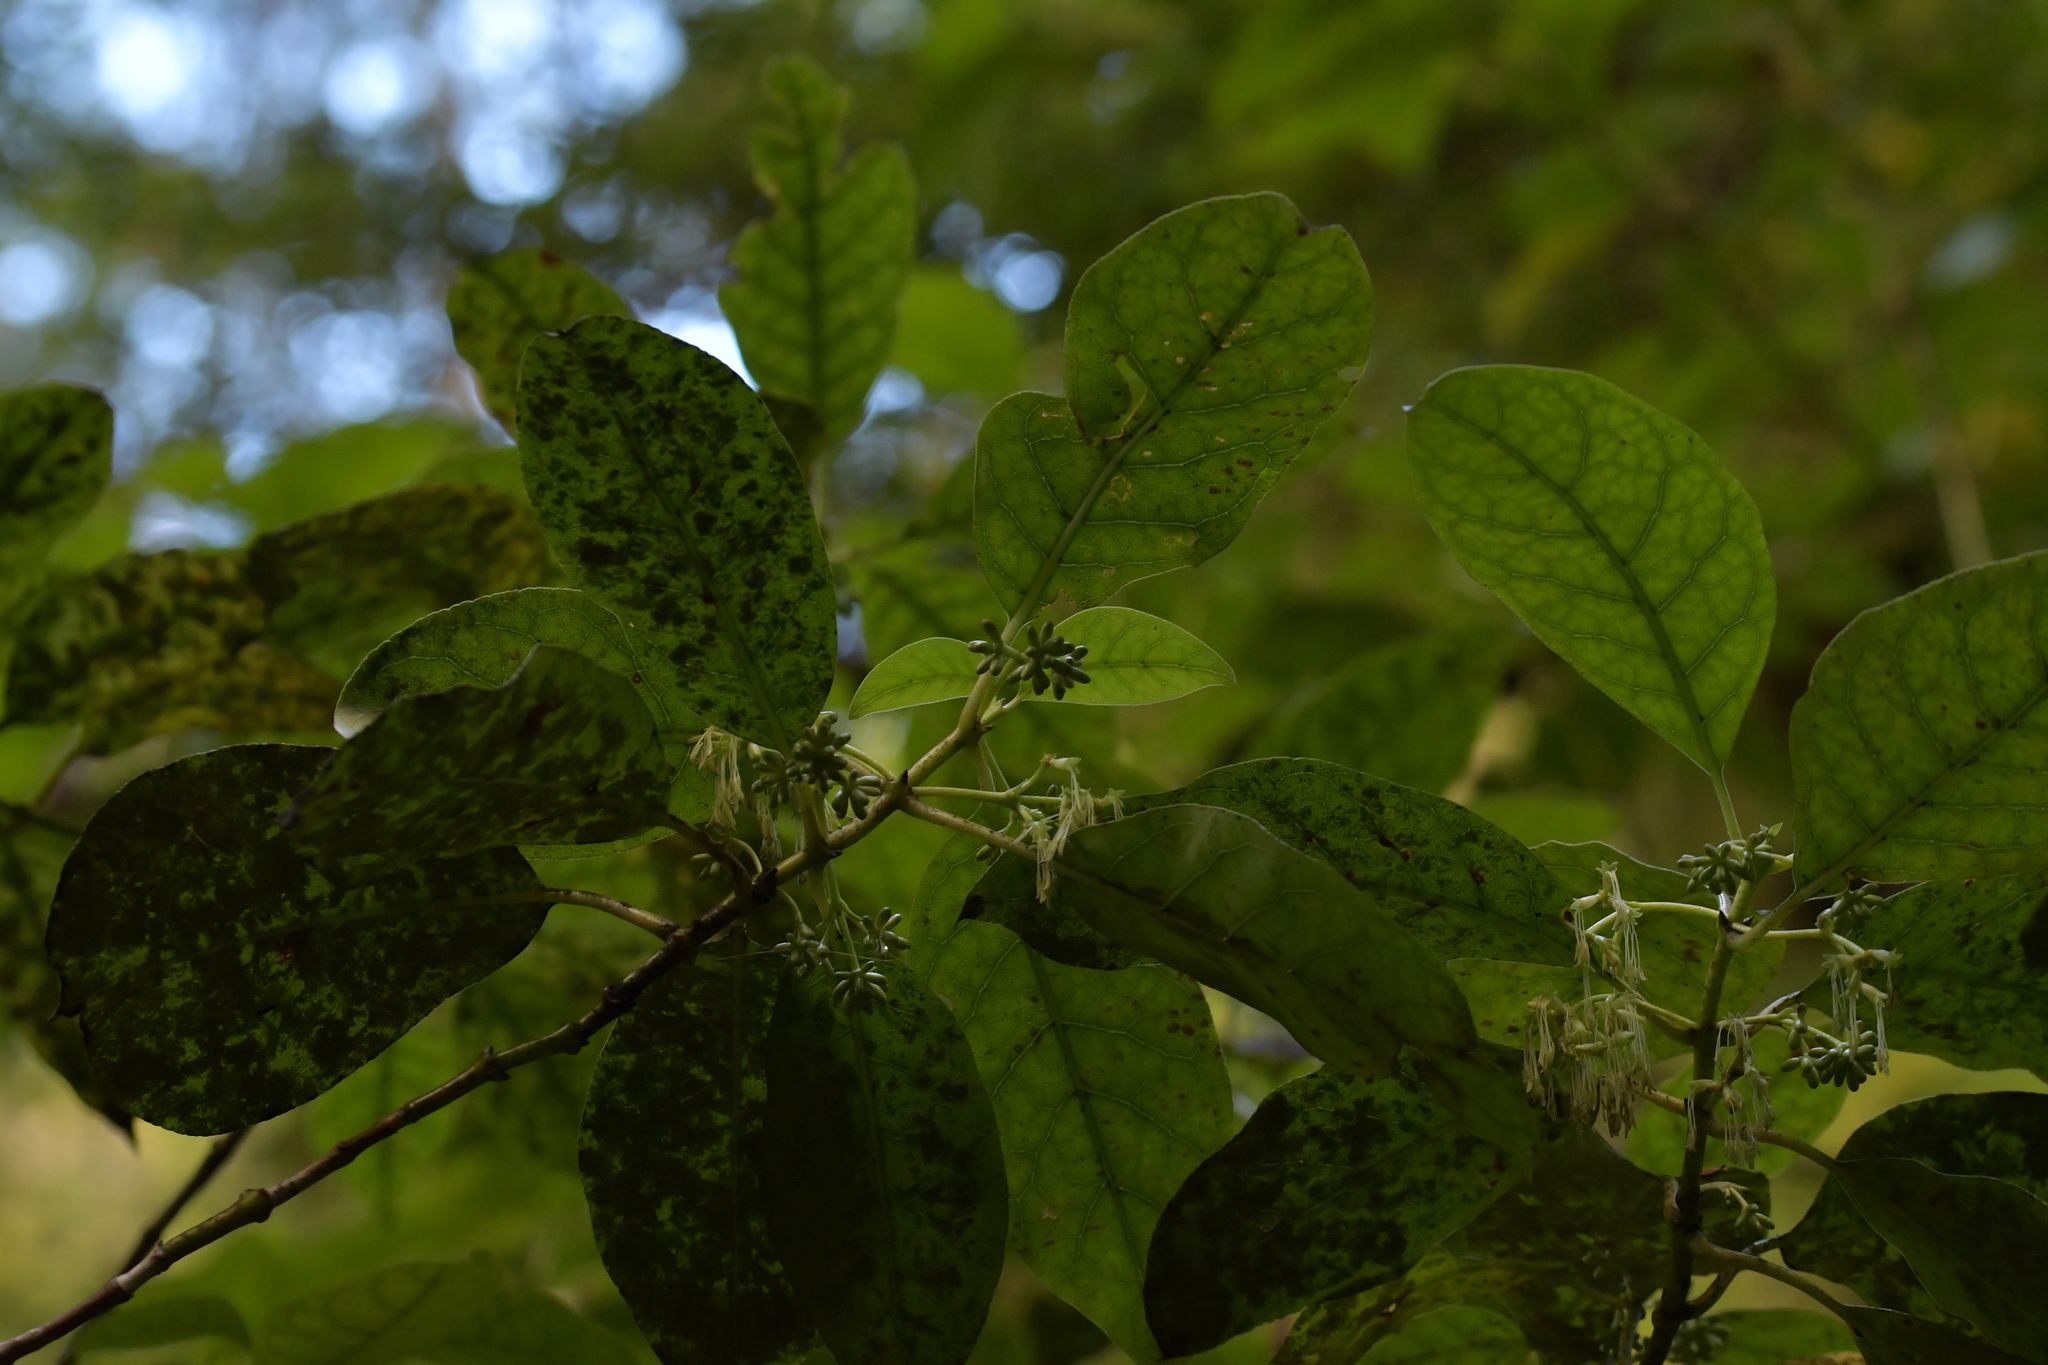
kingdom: Plantae
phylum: Tracheophyta
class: Magnoliopsida
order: Gentianales
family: Rubiaceae
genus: Coprosma
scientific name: Coprosma autumnalis
